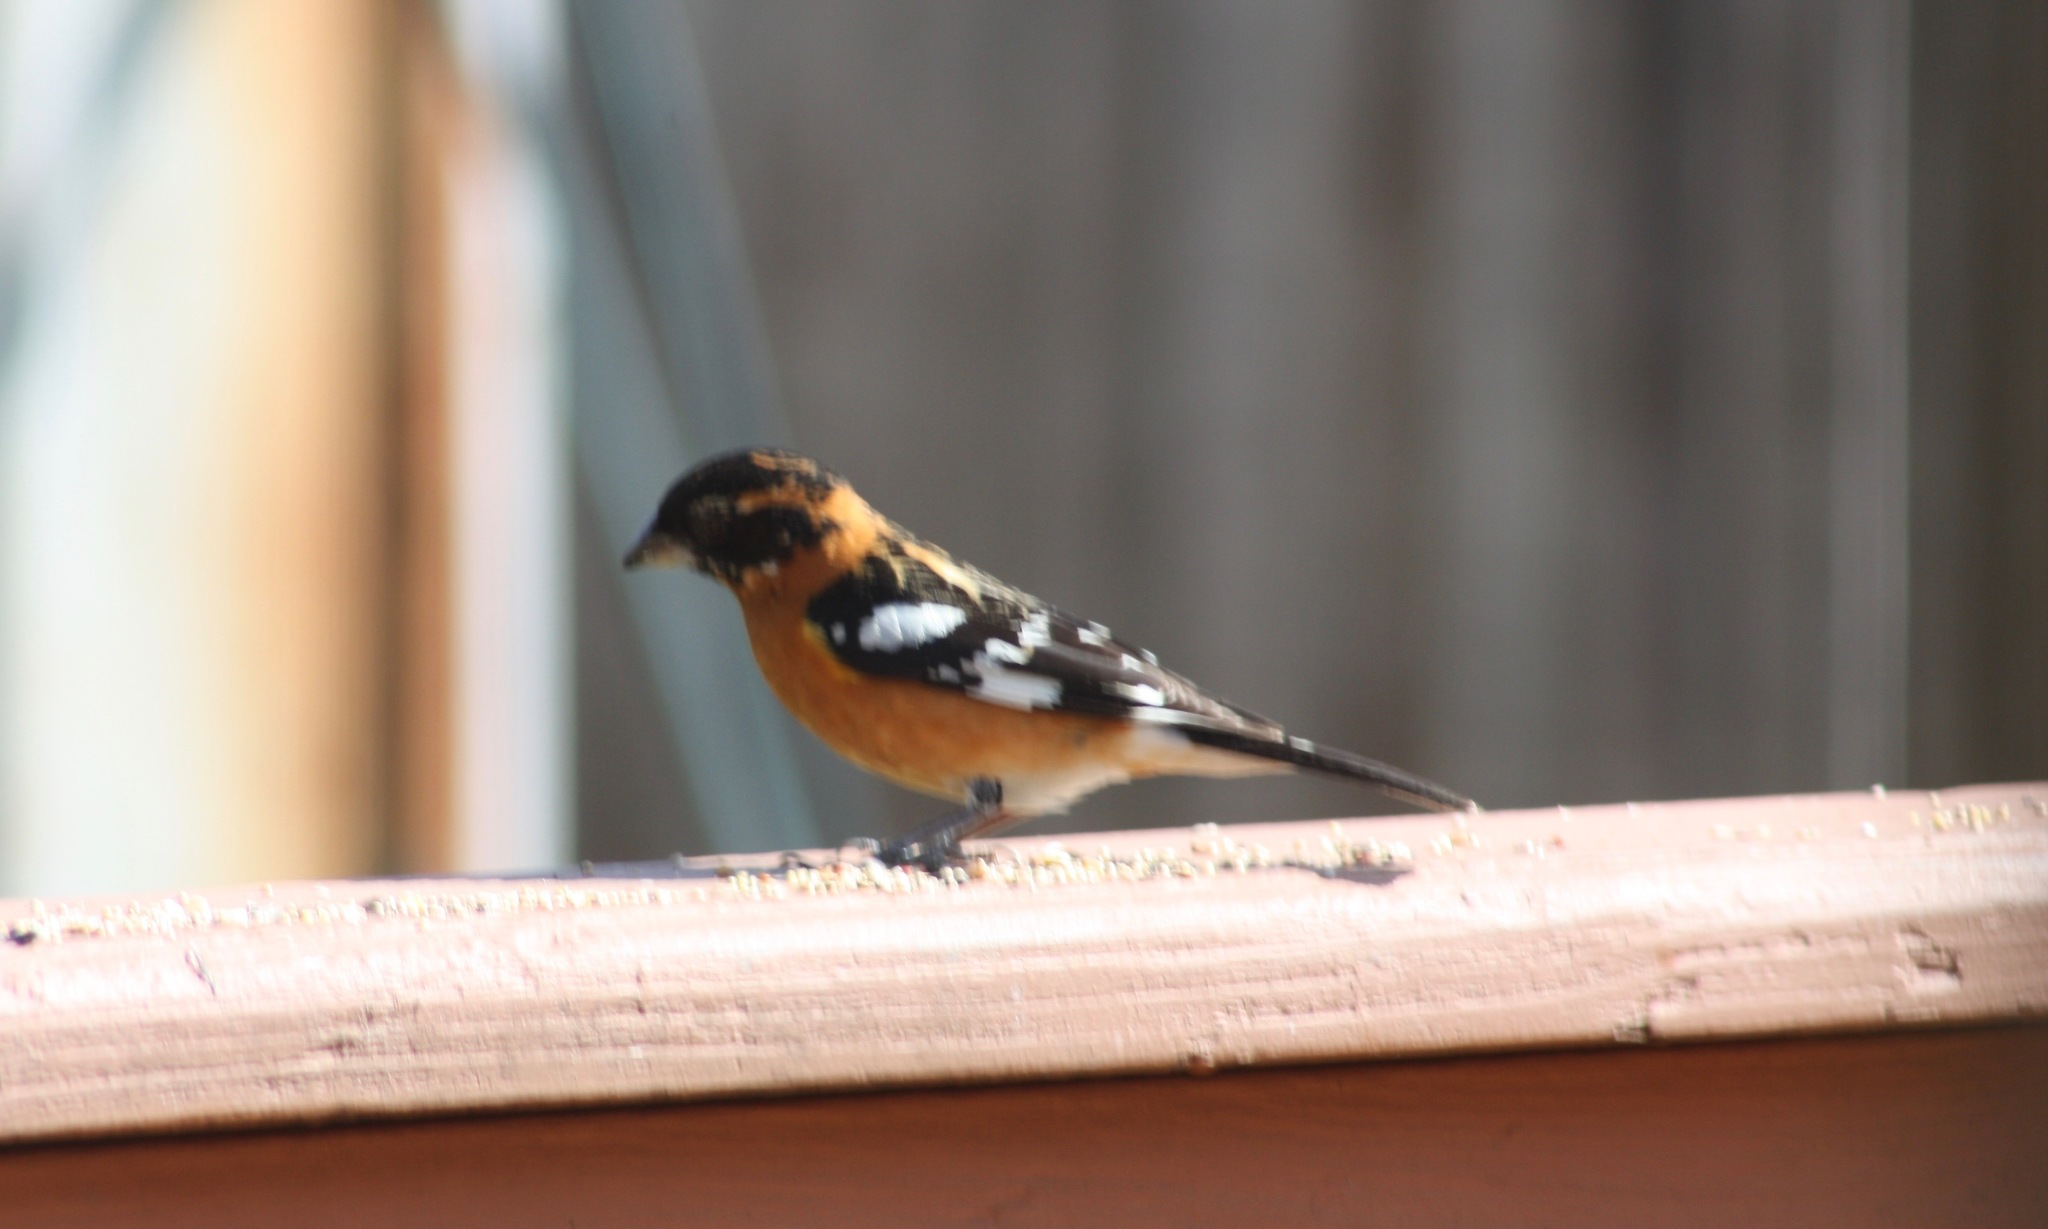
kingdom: Animalia
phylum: Chordata
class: Aves
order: Passeriformes
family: Cardinalidae
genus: Pheucticus
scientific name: Pheucticus melanocephalus
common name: Black-headed grosbeak
